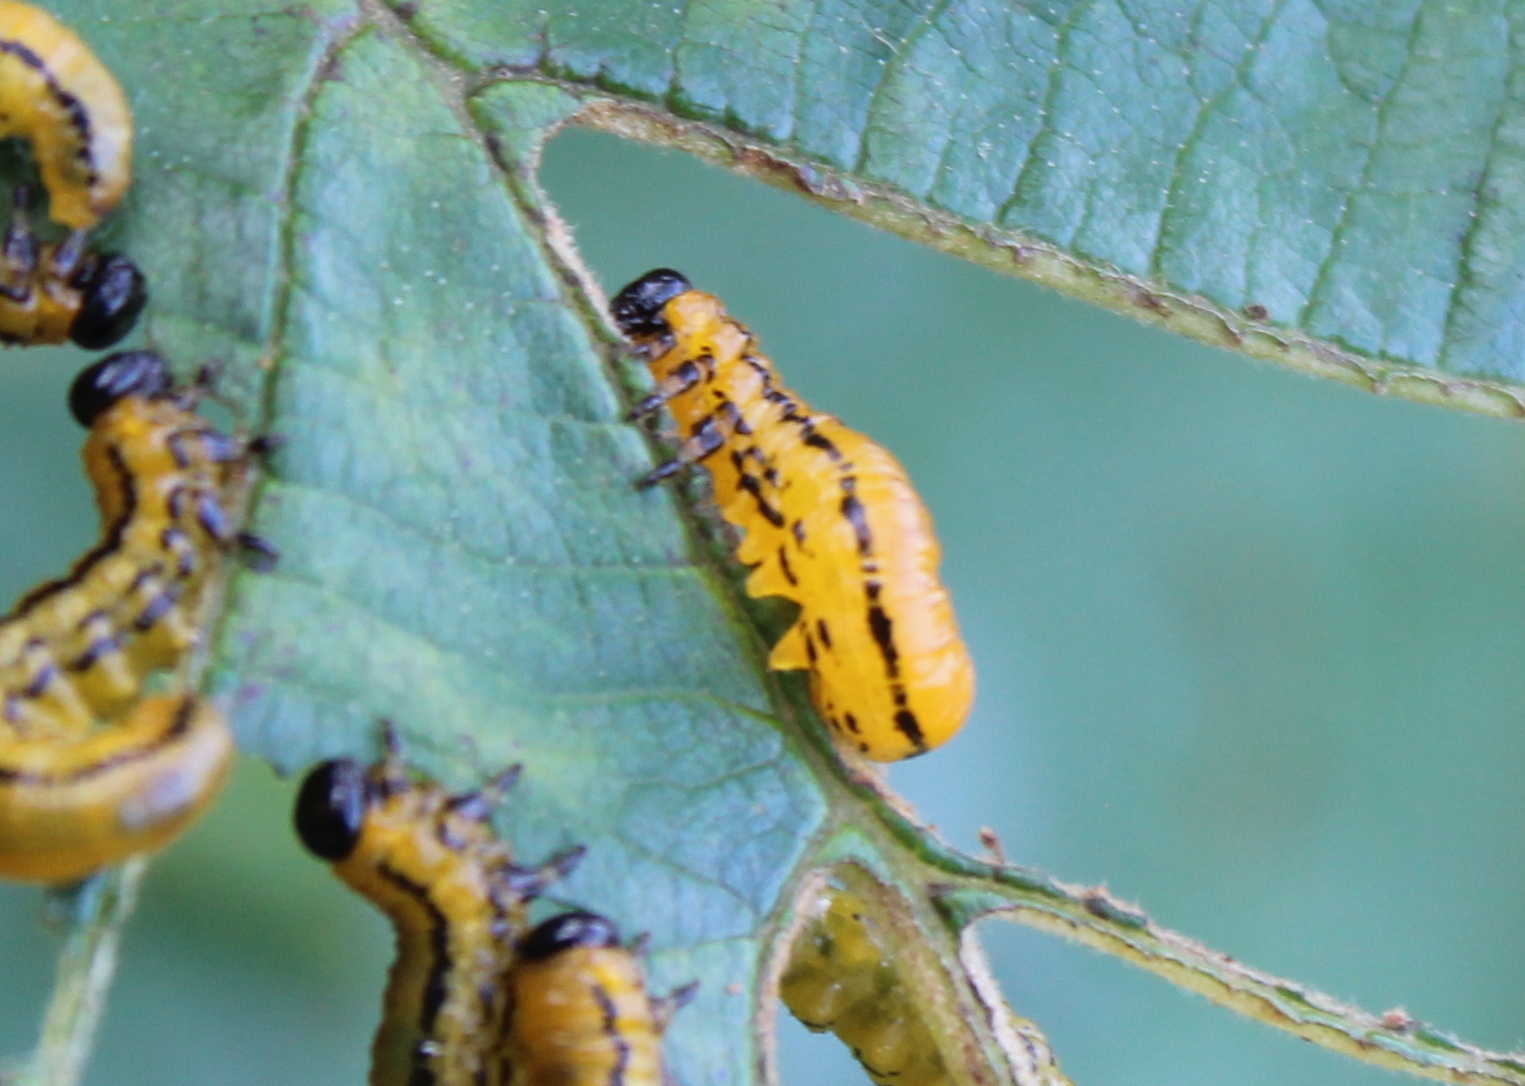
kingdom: Animalia
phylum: Arthropoda
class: Insecta
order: Hymenoptera
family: Tenthredinidae
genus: Hemichroa
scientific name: Hemichroa crocea
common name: Striped alder sawfly
